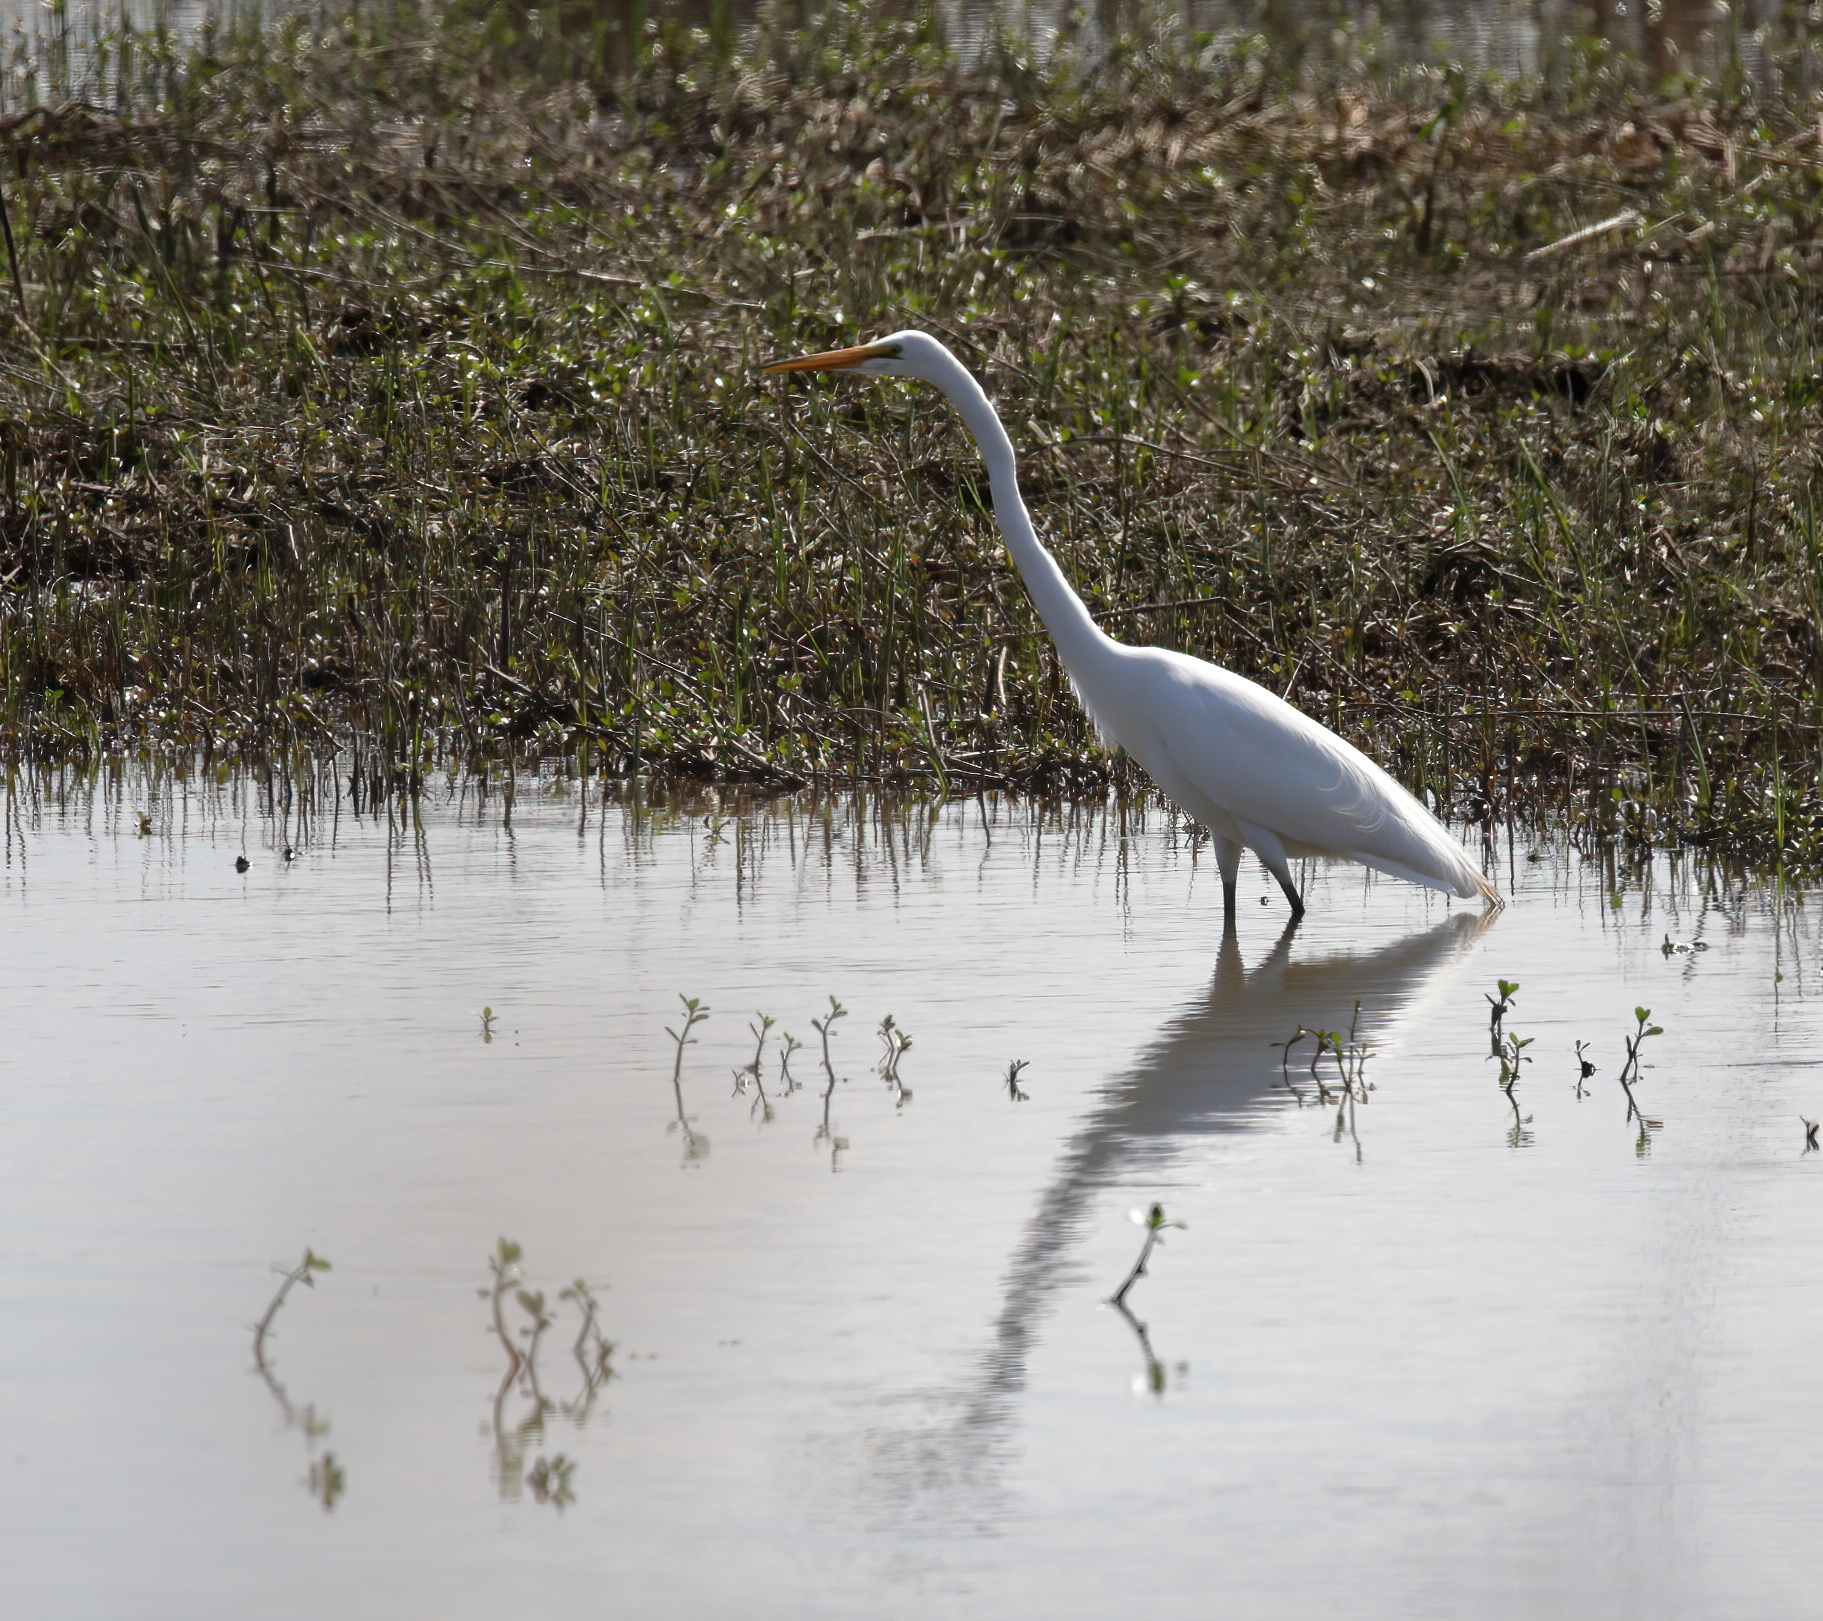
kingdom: Animalia
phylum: Chordata
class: Aves
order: Pelecaniformes
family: Ardeidae
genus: Ardea
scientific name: Ardea alba
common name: Great egret
